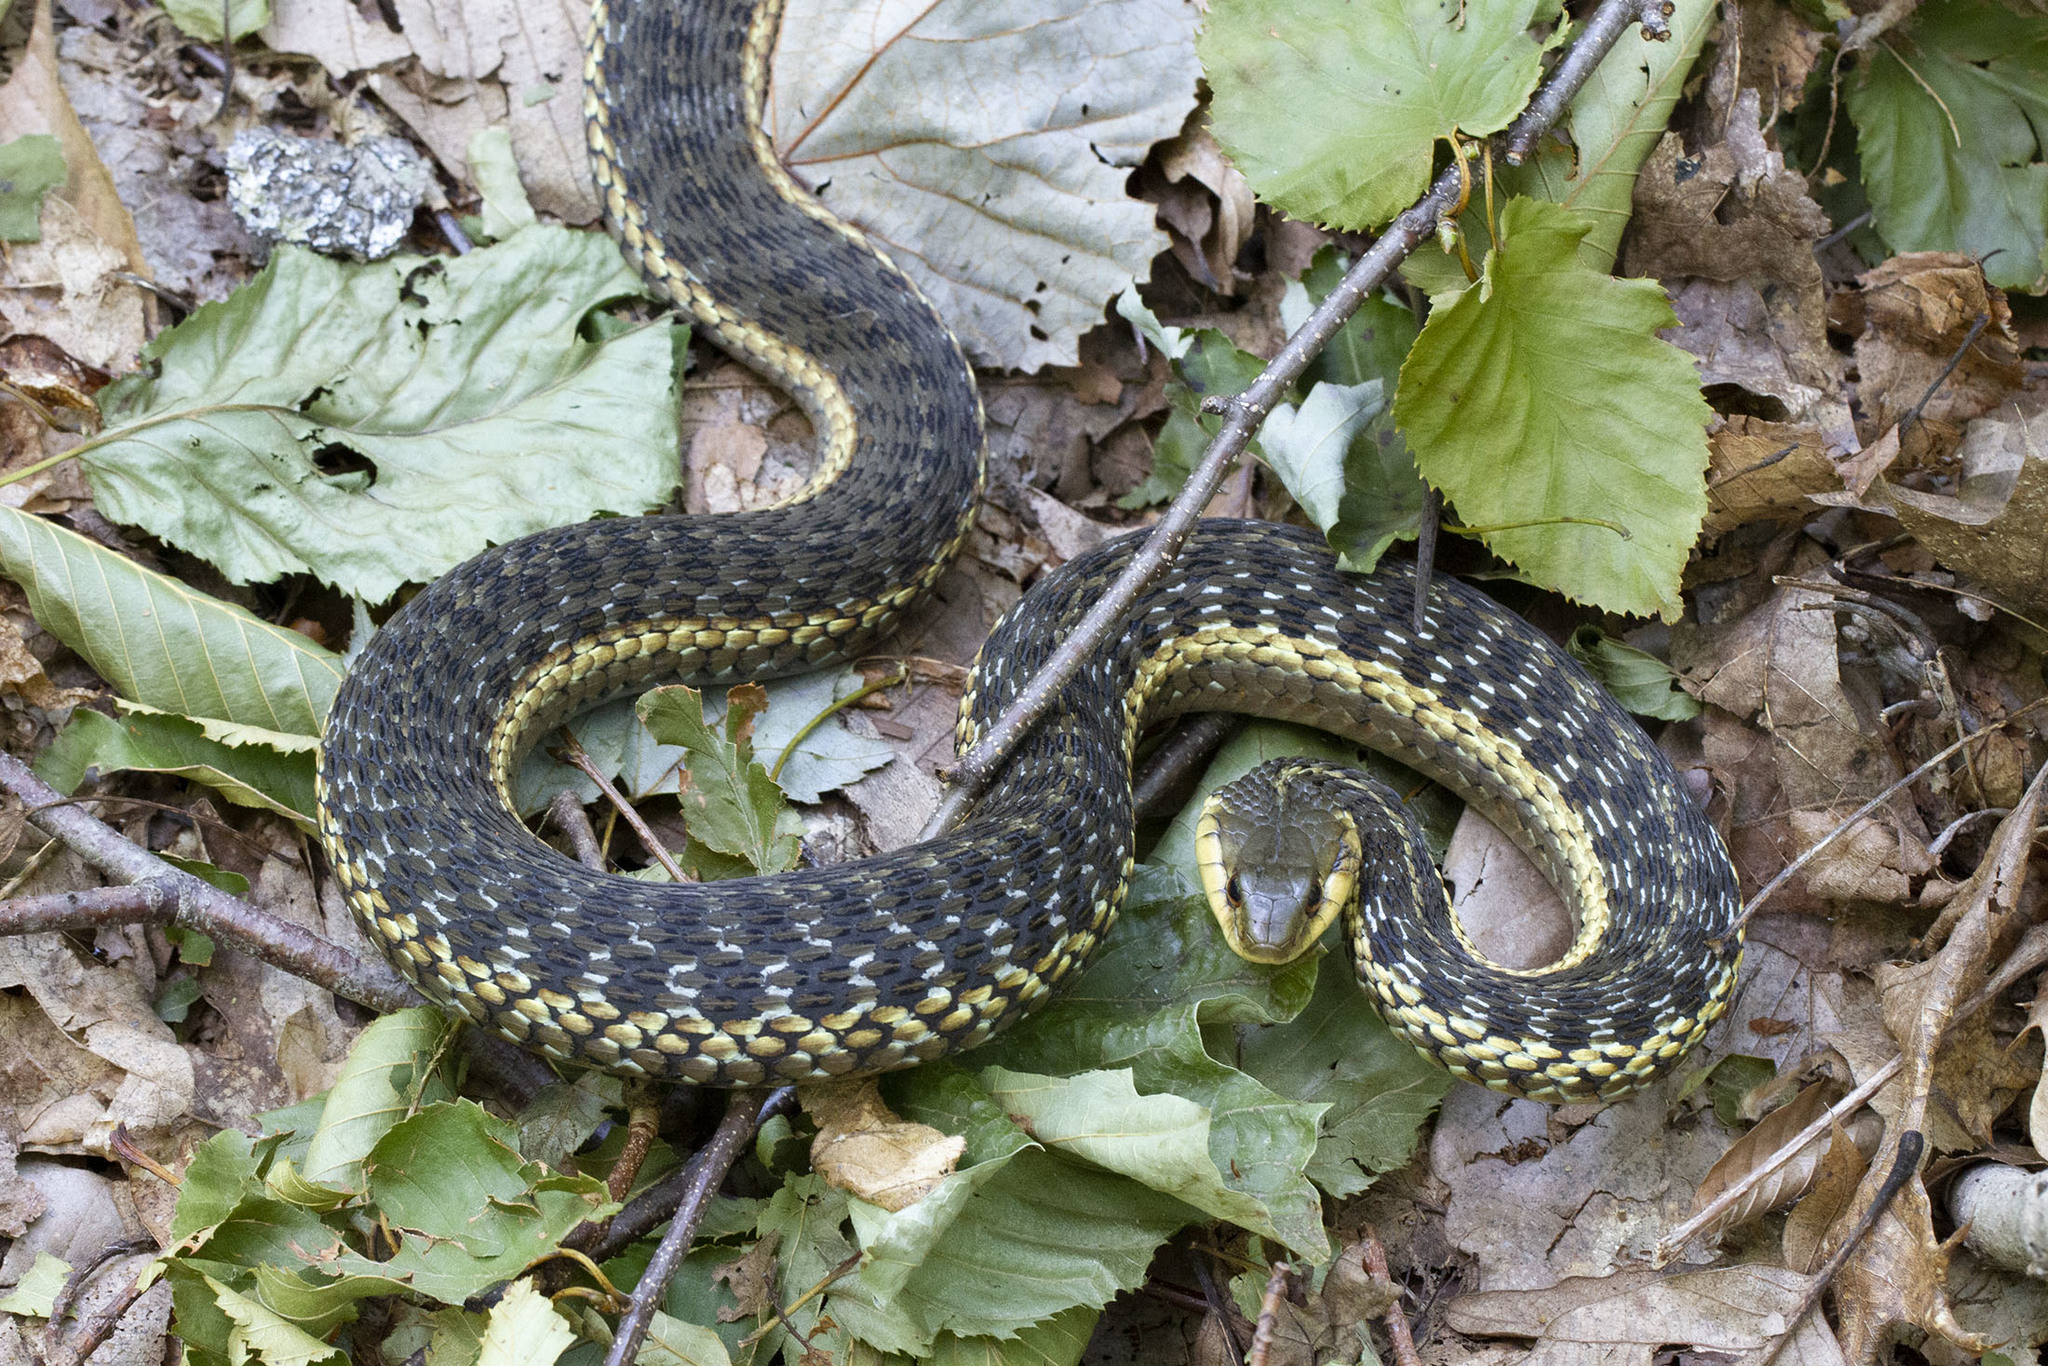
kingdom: Animalia
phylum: Chordata
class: Squamata
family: Colubridae
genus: Thamnophis
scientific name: Thamnophis sirtalis
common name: Common garter snake
